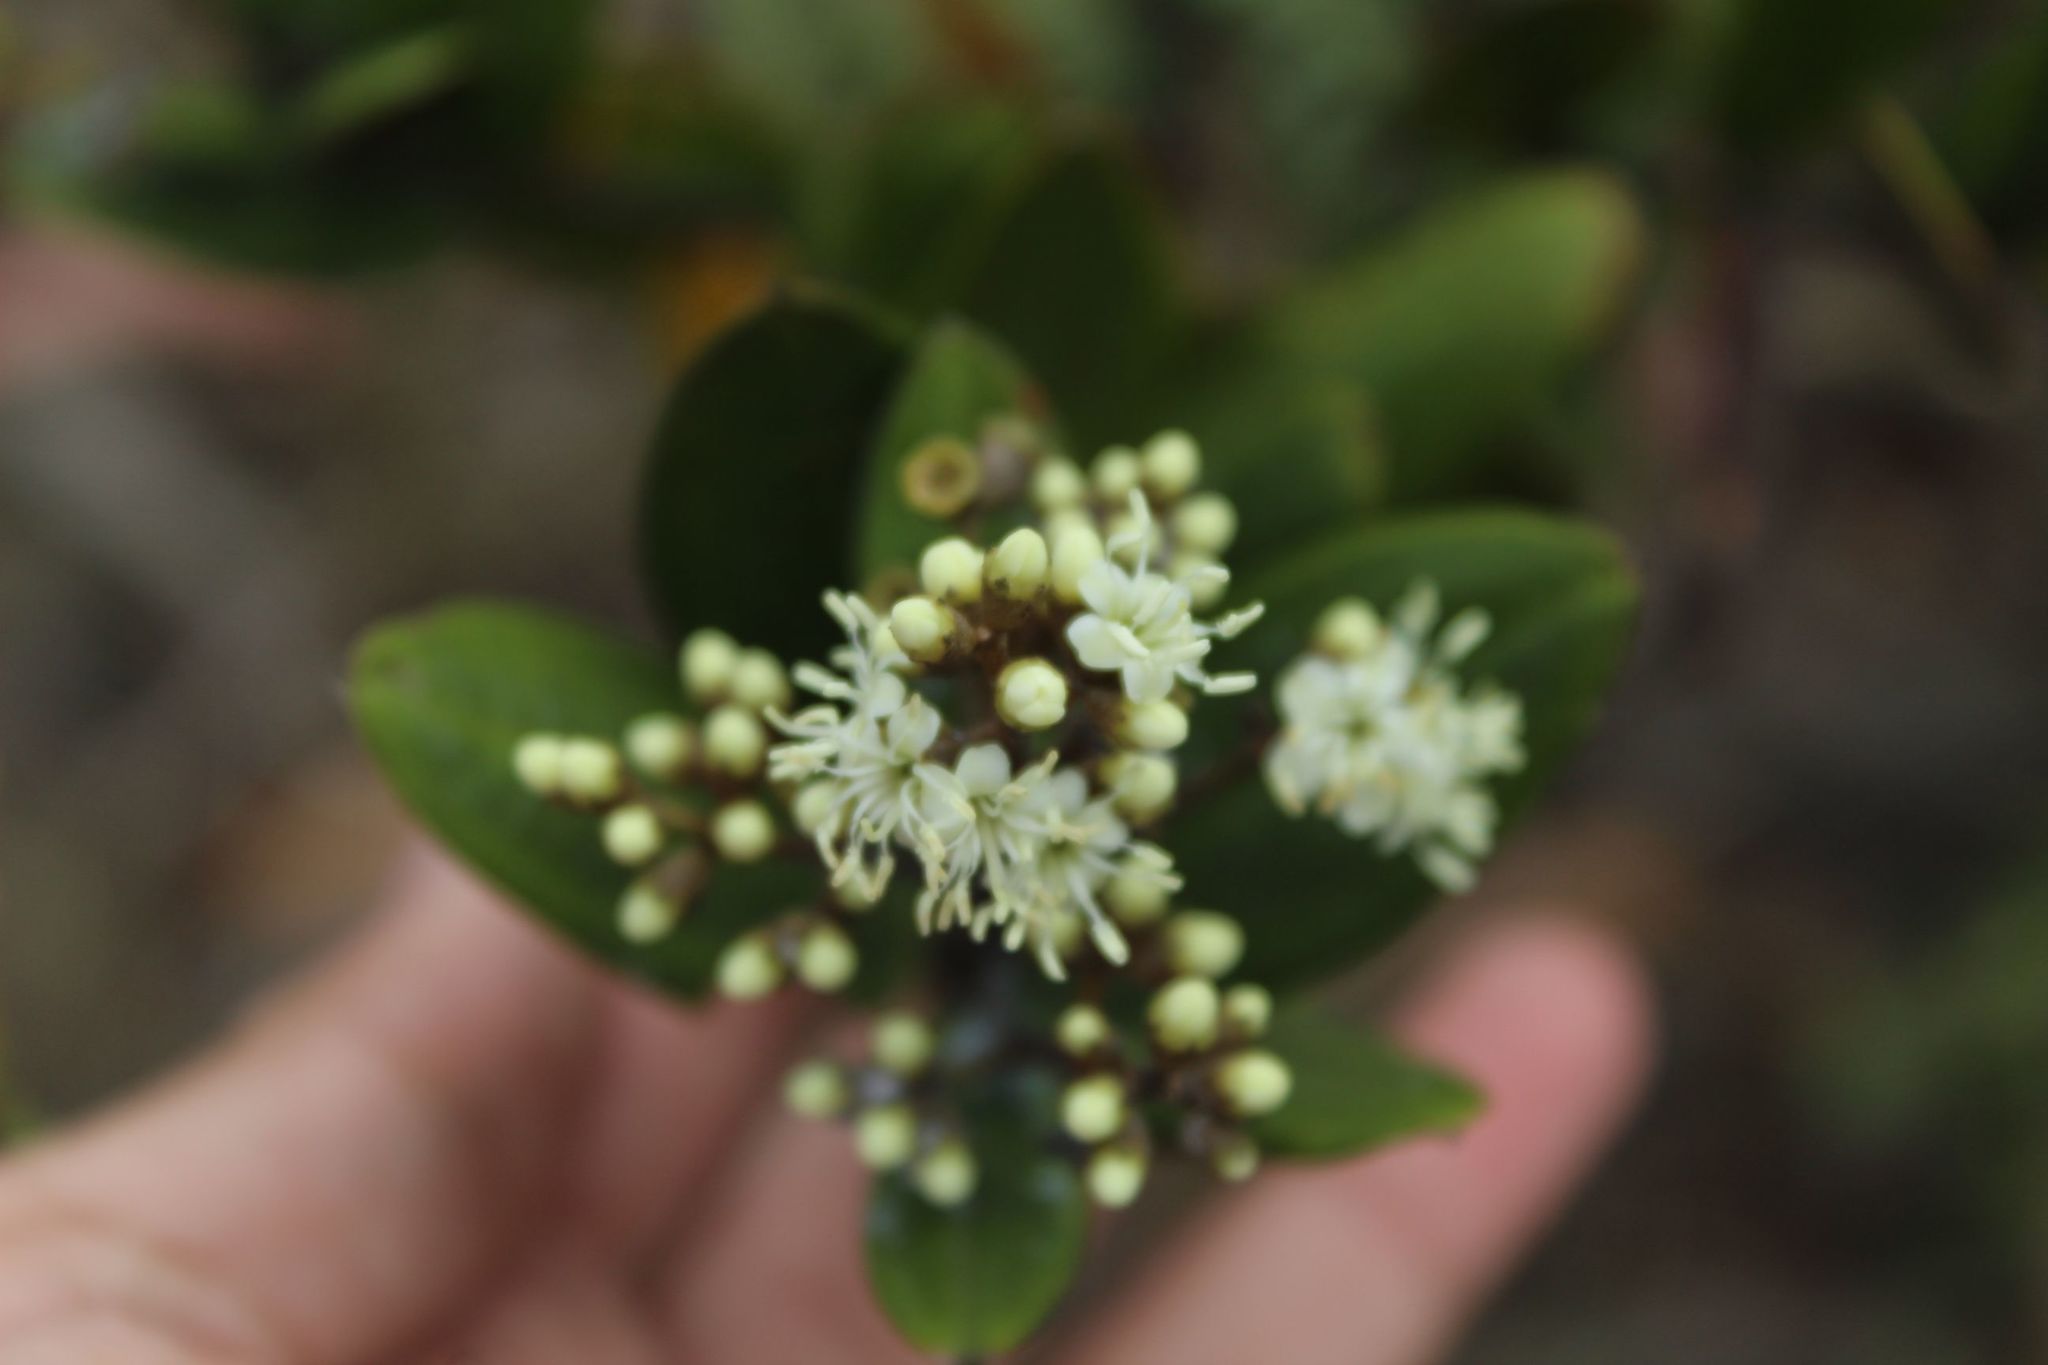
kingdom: Plantae
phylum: Tracheophyta
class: Magnoliopsida
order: Myrtales
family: Melastomataceae
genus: Miconia
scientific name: Miconia squamulosa
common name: Squamulose maya
